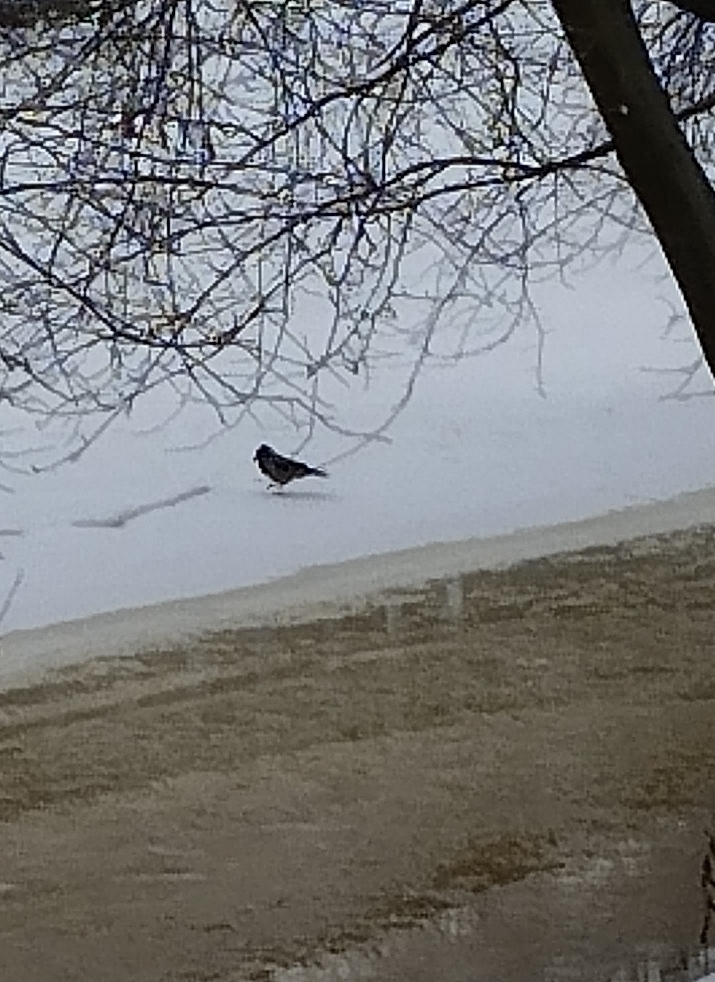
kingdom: Animalia
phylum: Chordata
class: Aves
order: Passeriformes
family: Corvidae
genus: Corvus
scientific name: Corvus cornix
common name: Hooded crow
